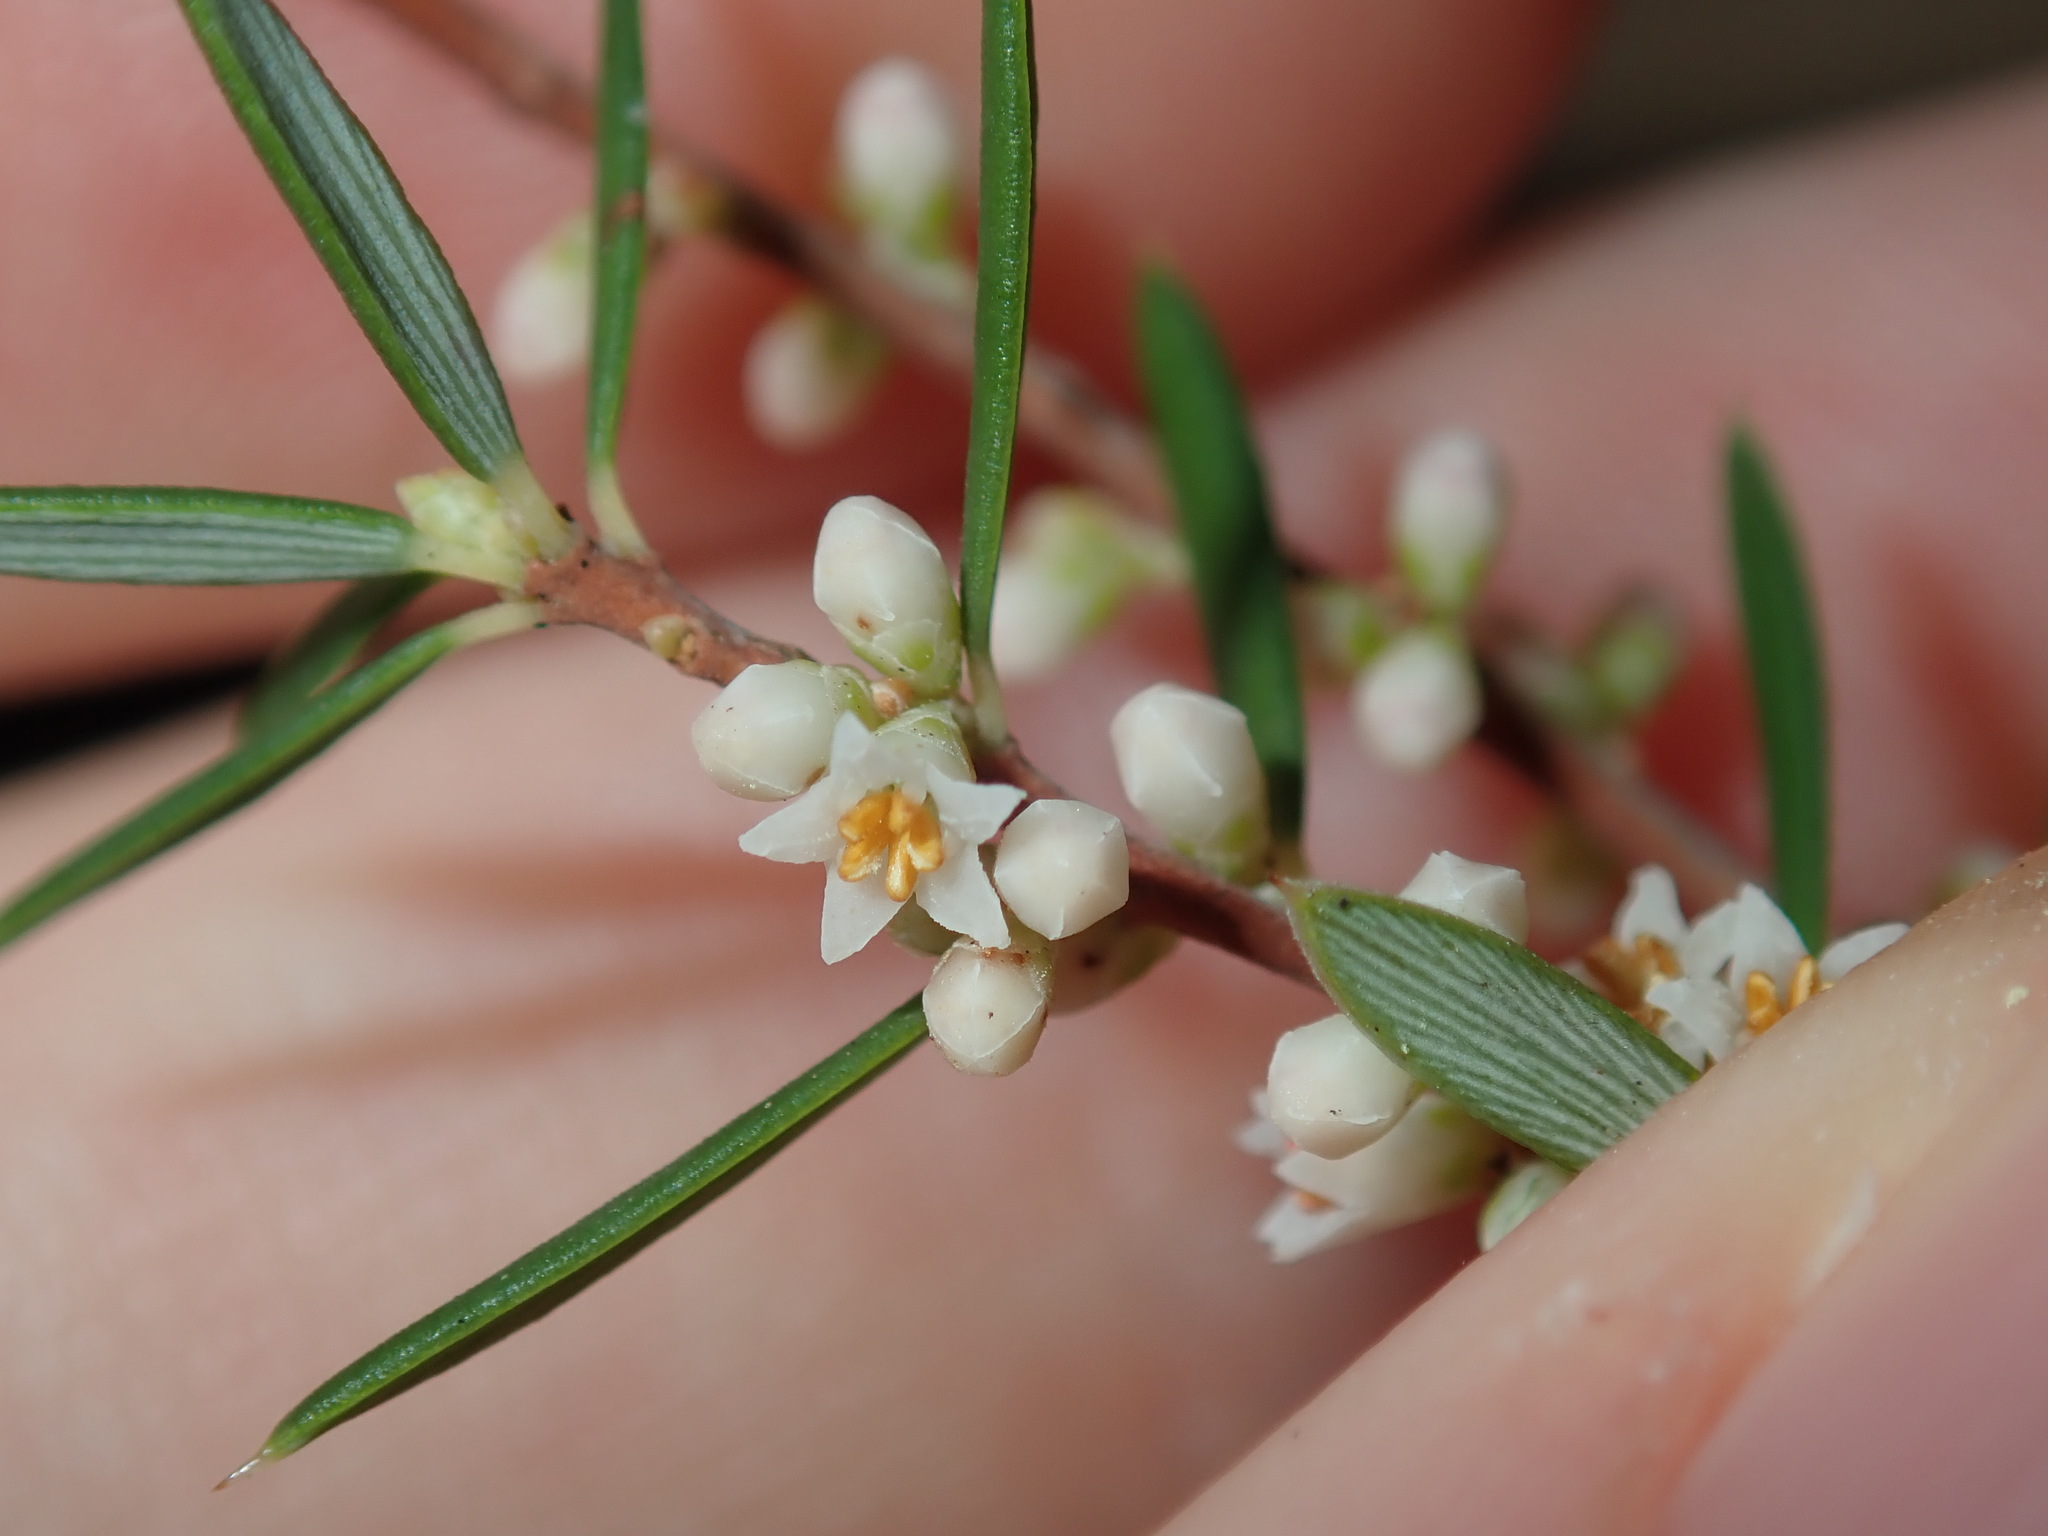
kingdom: Plantae
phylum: Tracheophyta
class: Magnoliopsida
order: Ericales
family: Ericaceae
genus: Monotoca
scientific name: Monotoca scoparia
